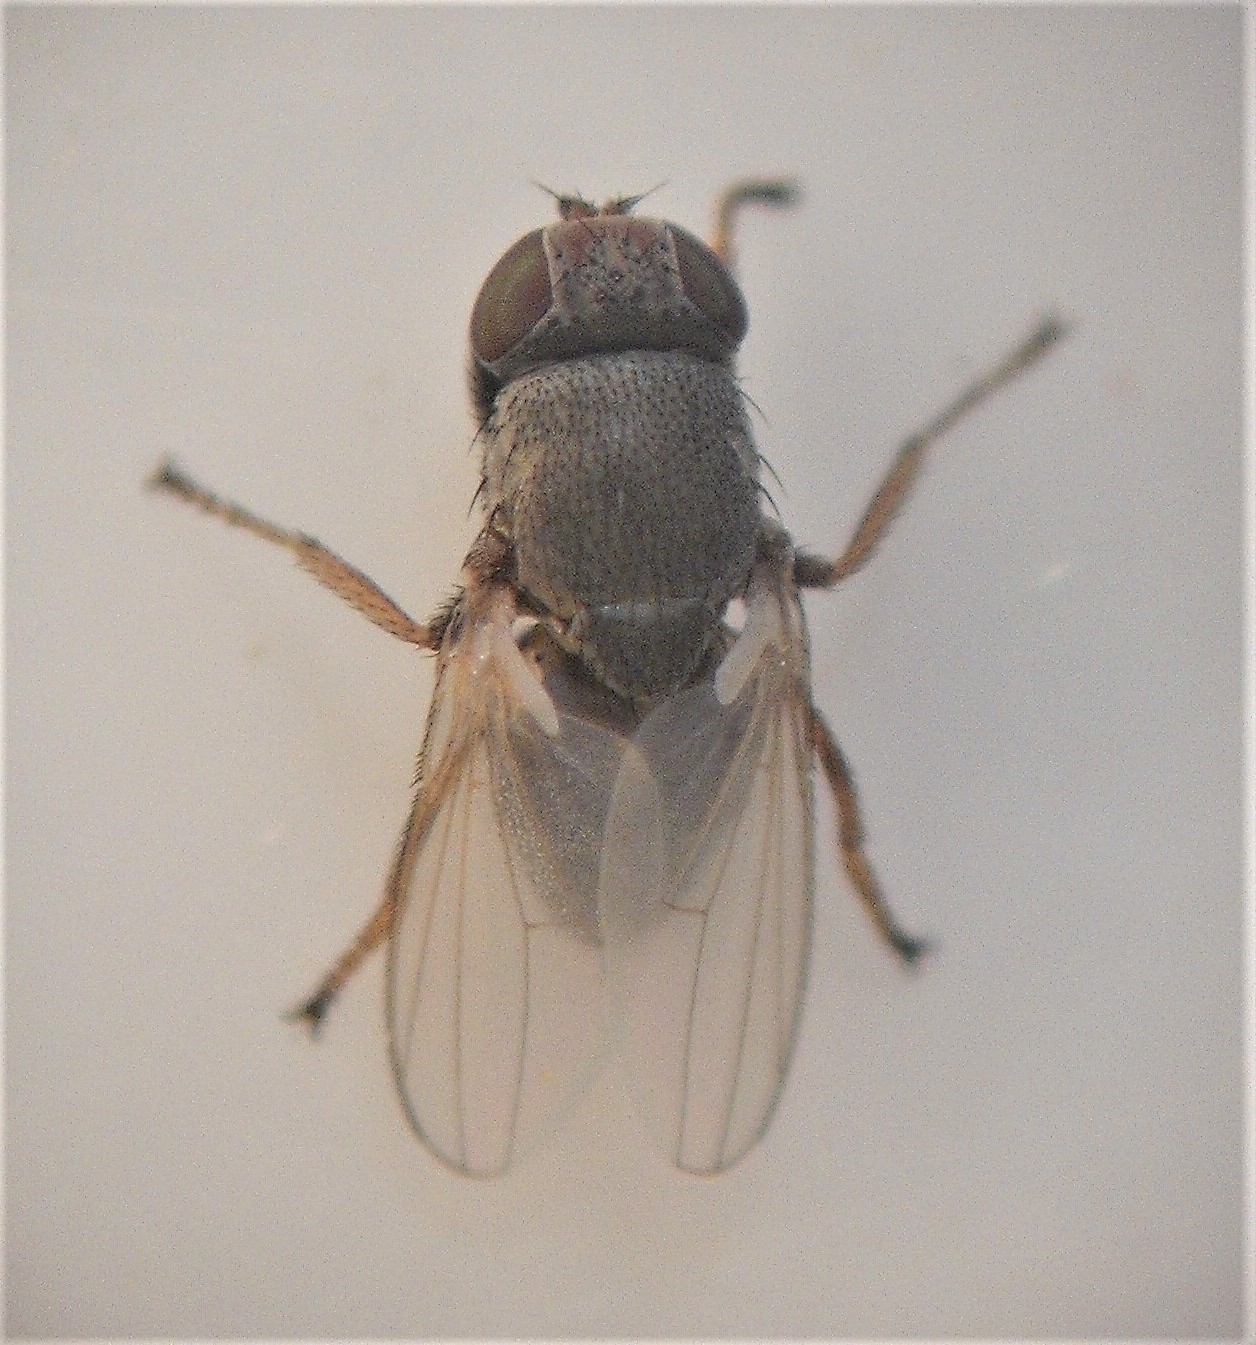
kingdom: Animalia
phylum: Arthropoda
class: Insecta
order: Diptera
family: Ephydridae
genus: Hecamede
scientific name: Hecamede granifera
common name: Shore fly
